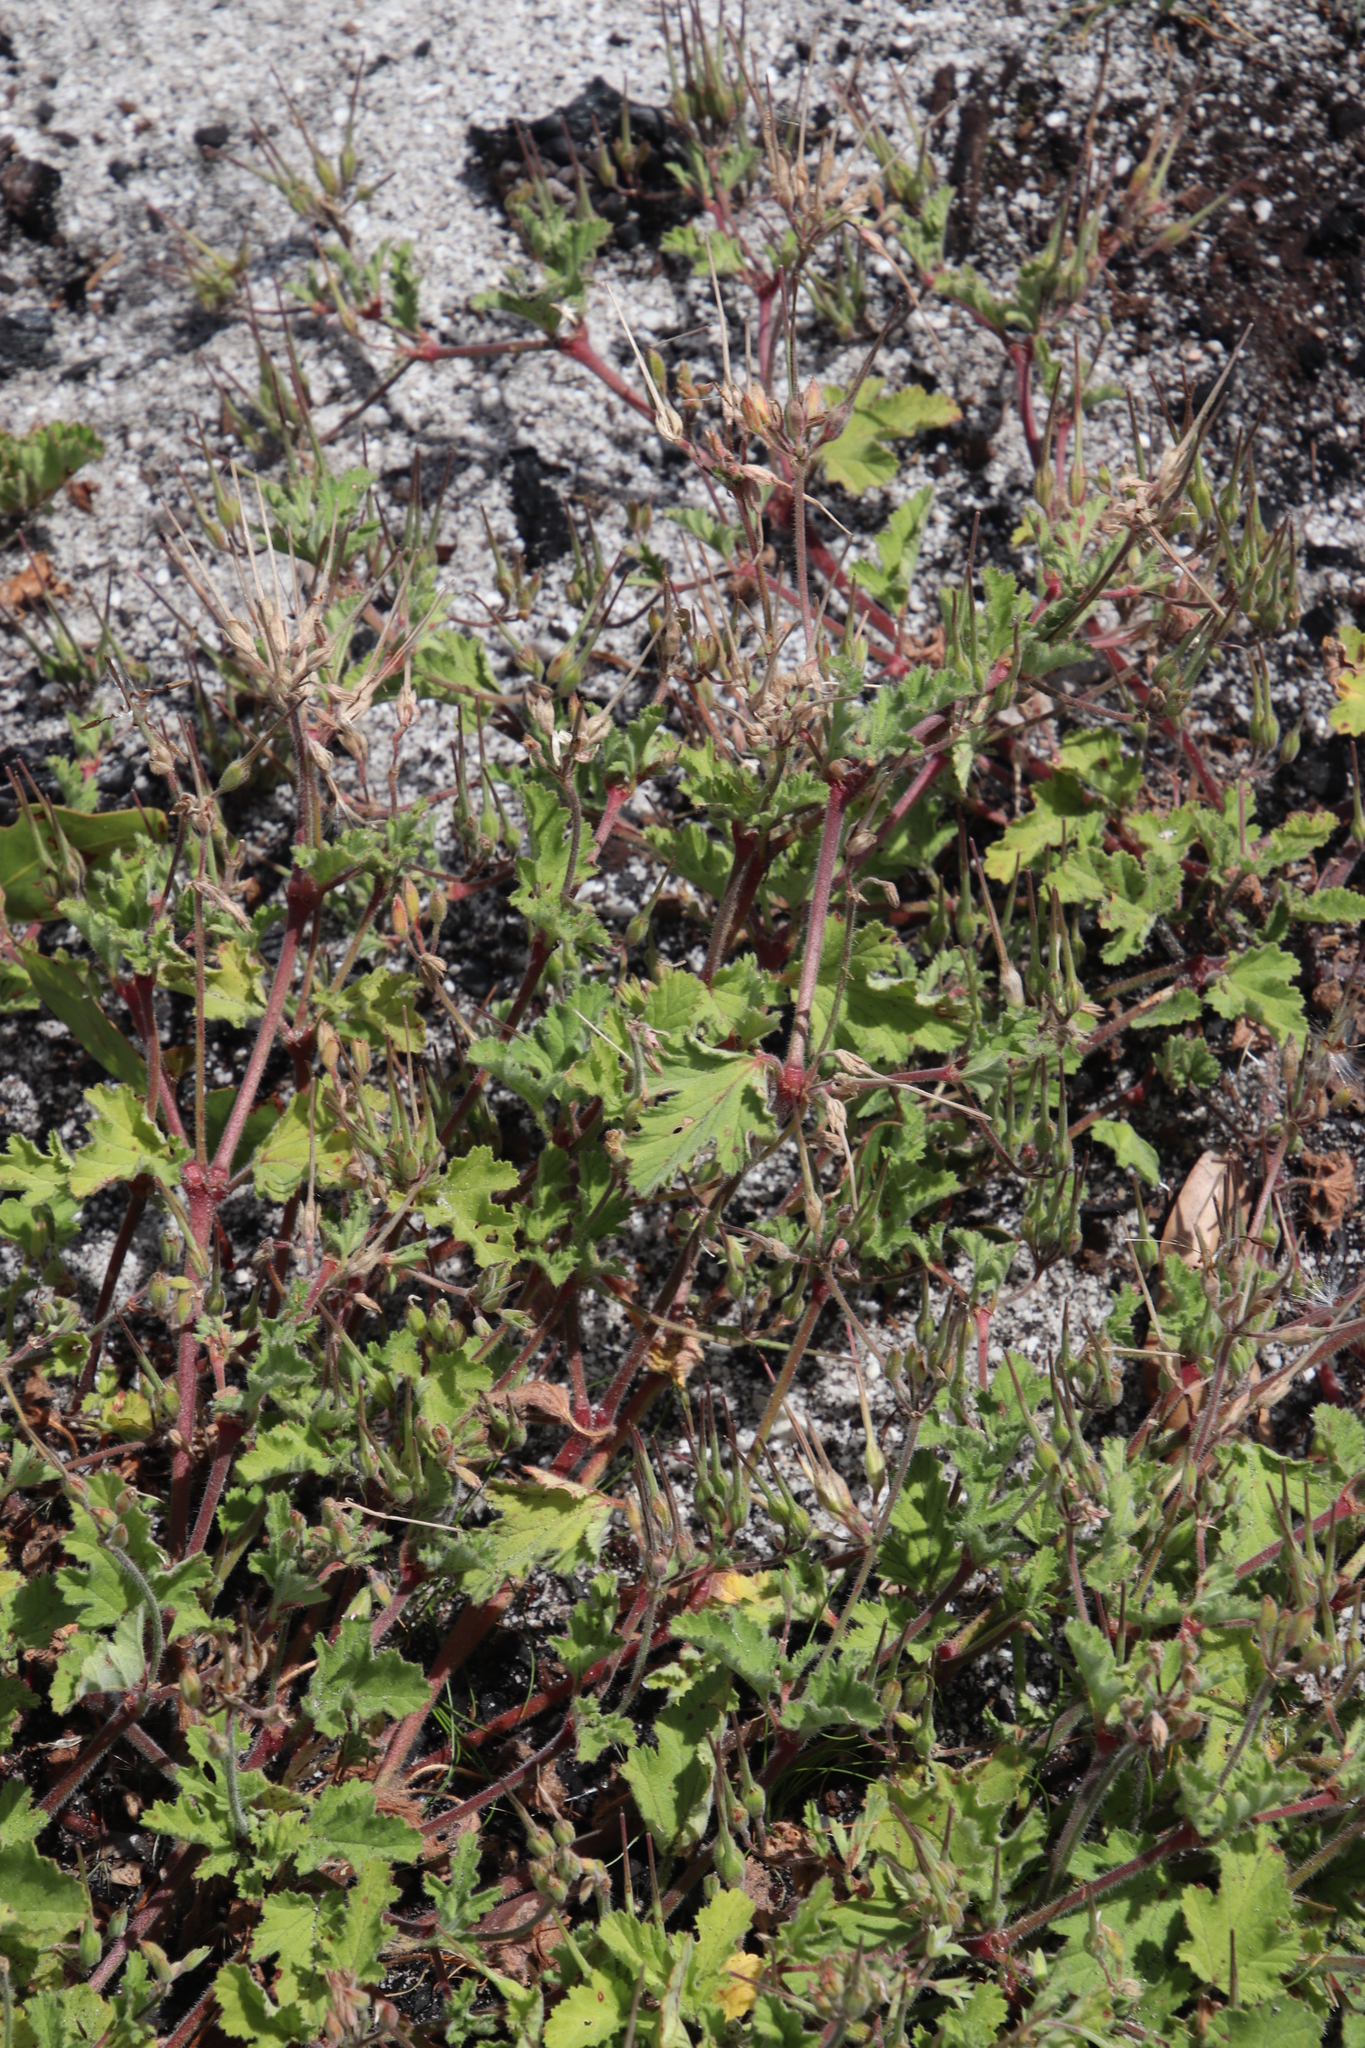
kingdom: Plantae
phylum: Tracheophyta
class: Magnoliopsida
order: Geraniales
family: Geraniaceae
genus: Pelargonium
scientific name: Pelargonium althaeoides
